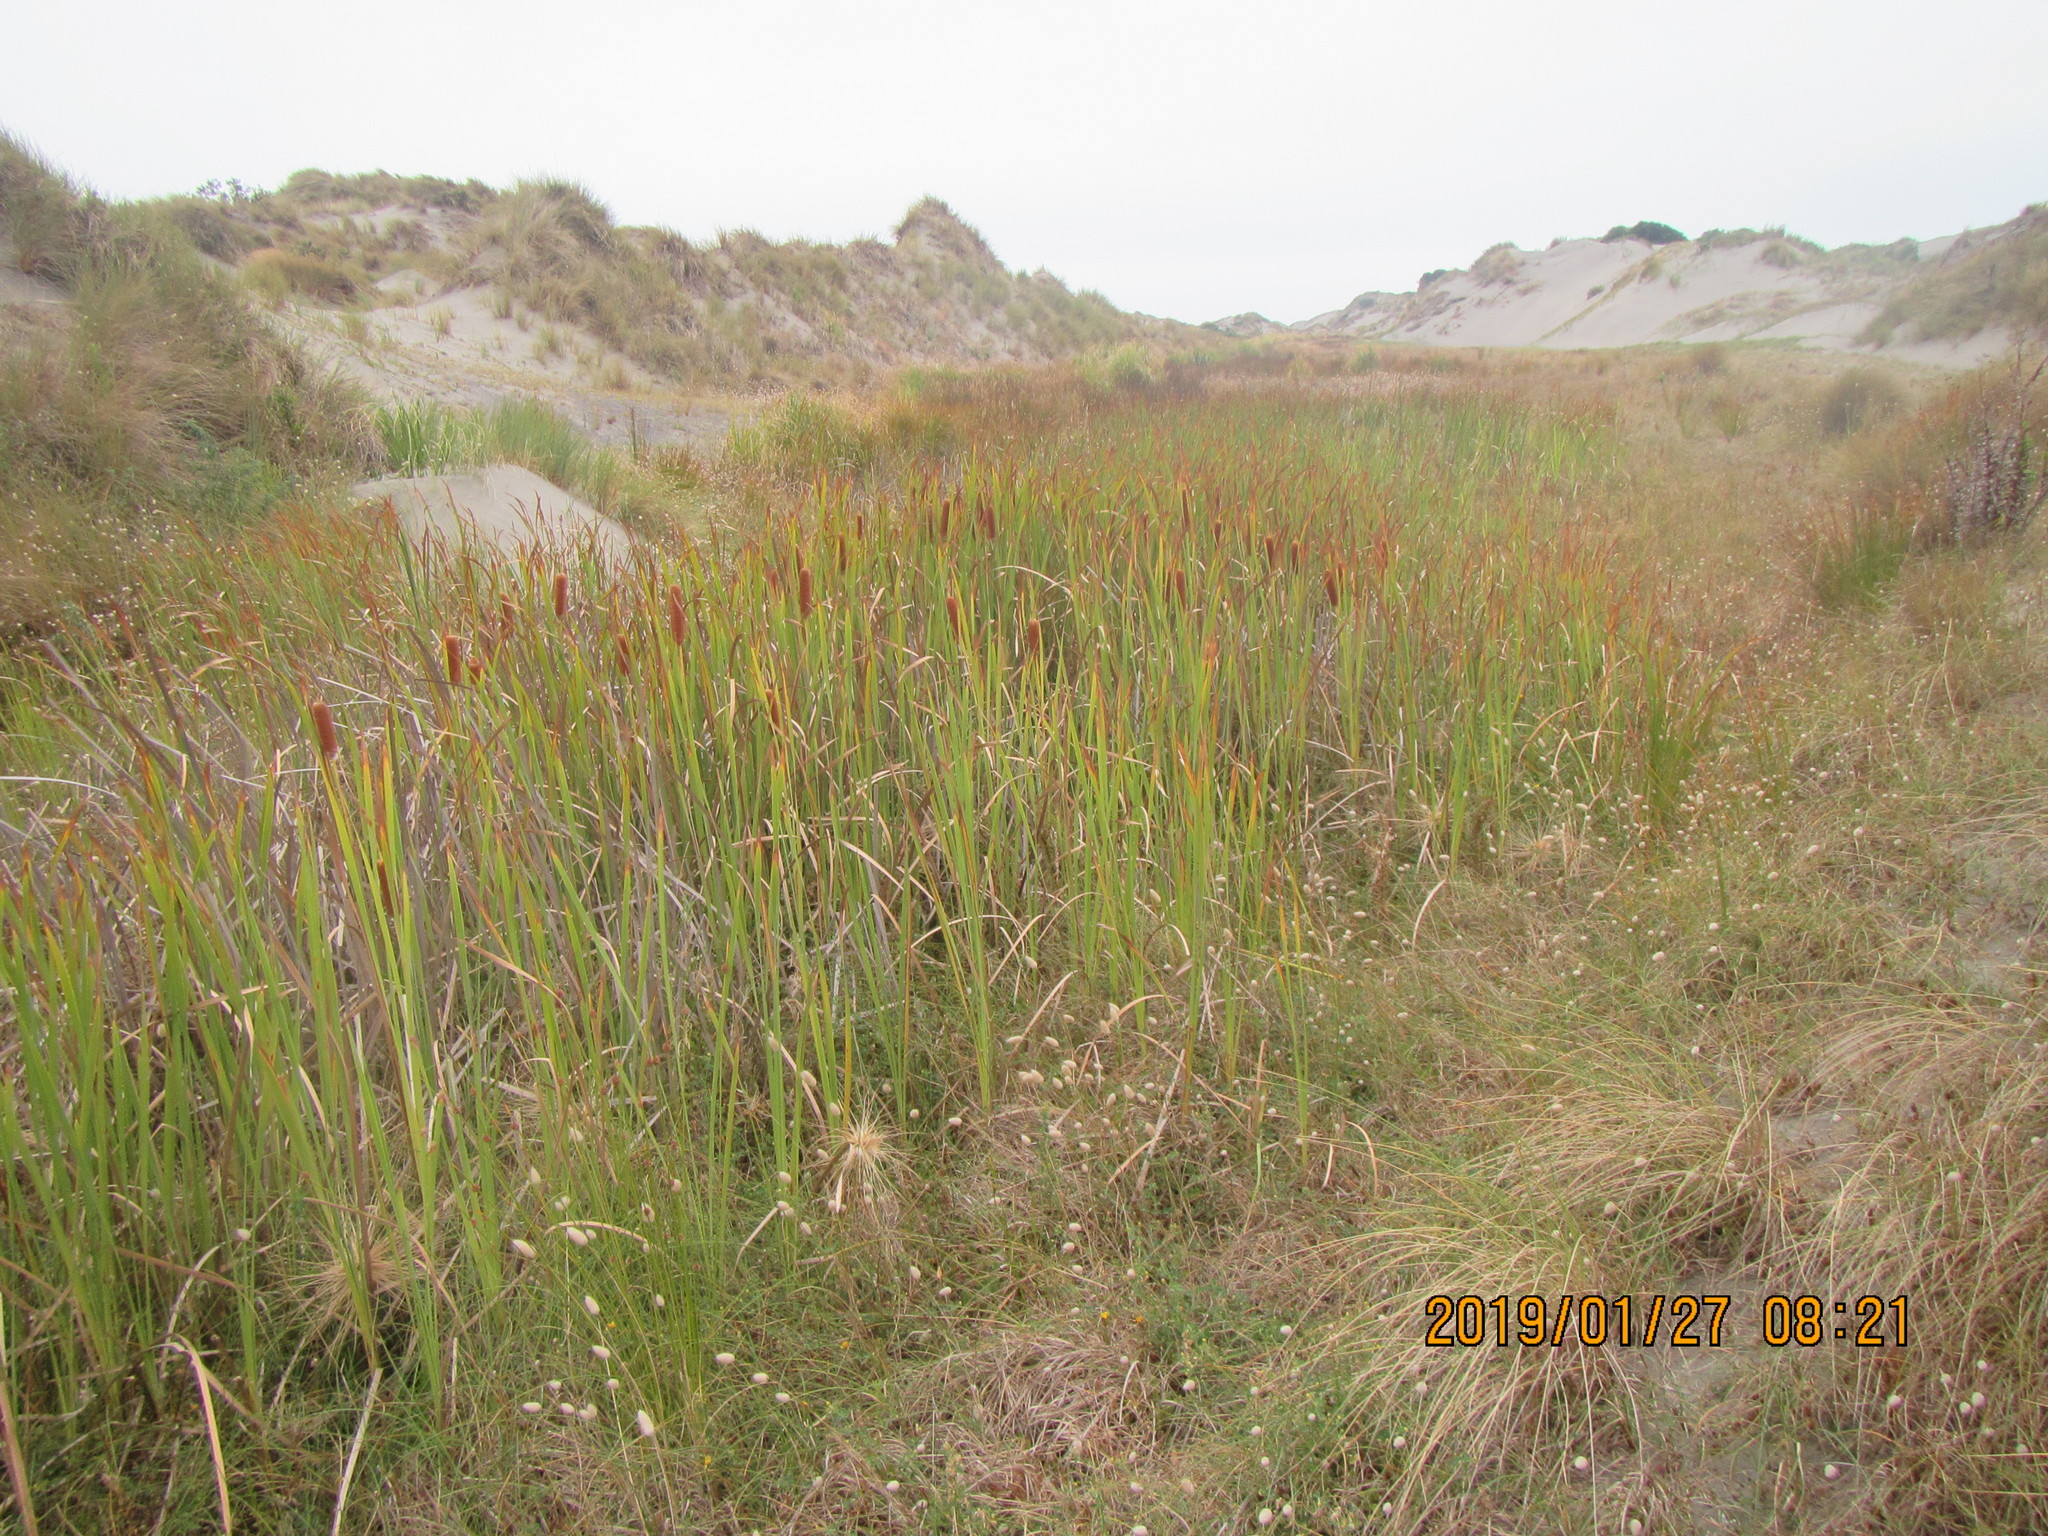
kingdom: Plantae
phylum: Tracheophyta
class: Liliopsida
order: Poales
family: Typhaceae
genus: Typha
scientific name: Typha orientalis
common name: Bullrush
